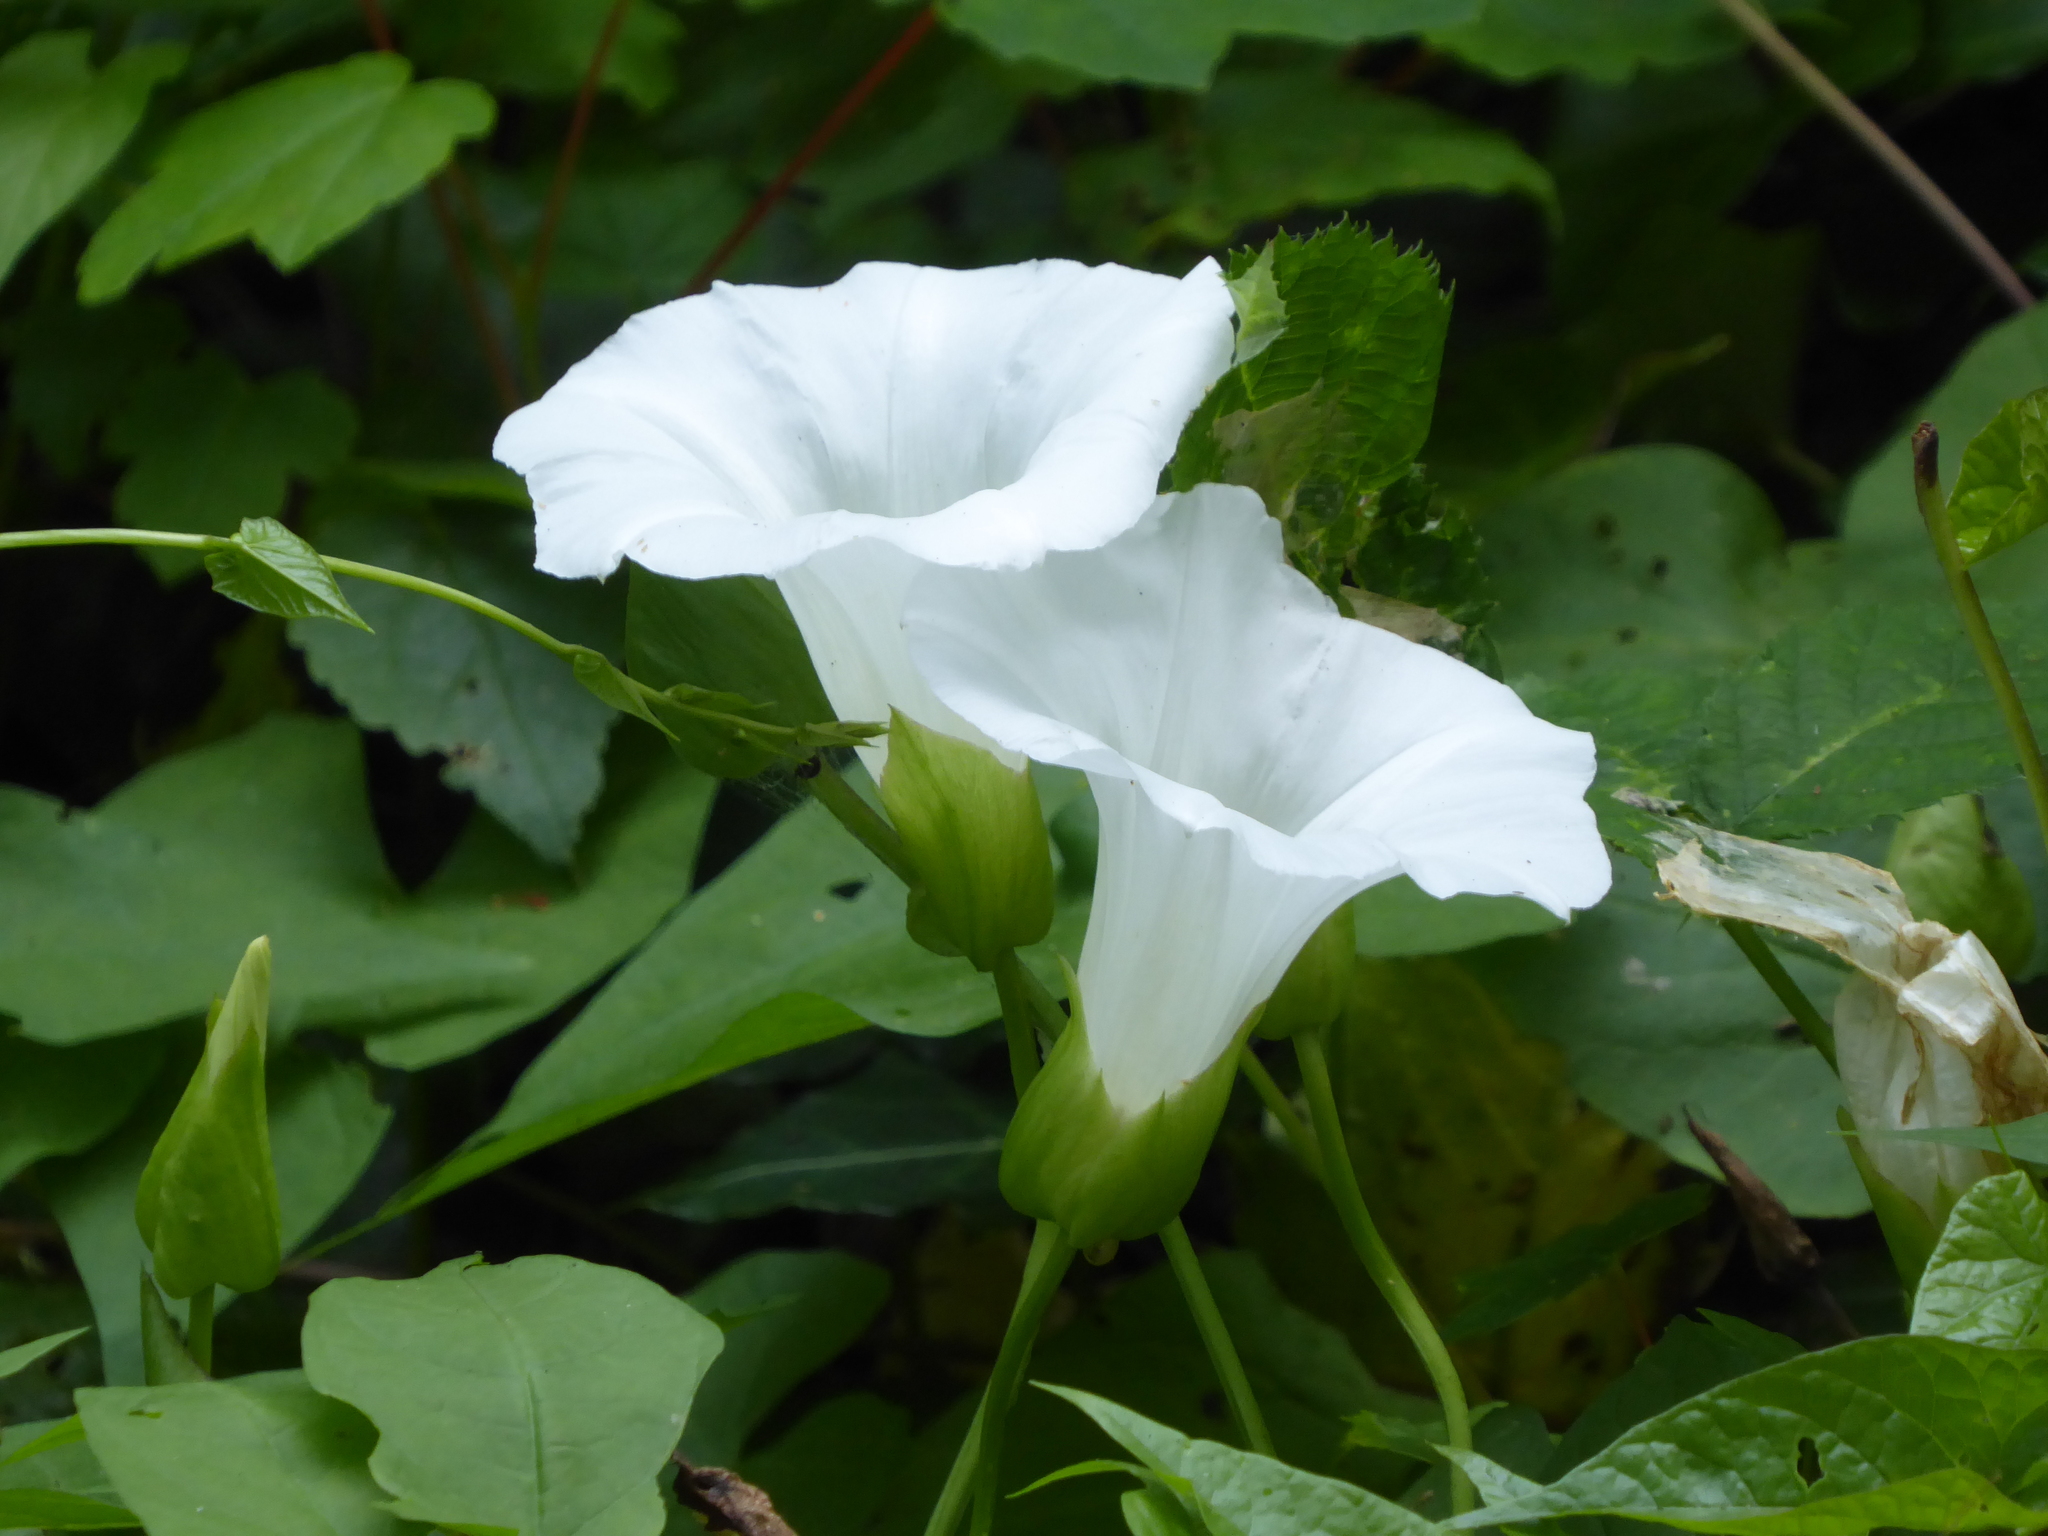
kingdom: Plantae
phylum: Tracheophyta
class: Magnoliopsida
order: Solanales
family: Convolvulaceae
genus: Calystegia
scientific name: Calystegia silvatica
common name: Large bindweed
